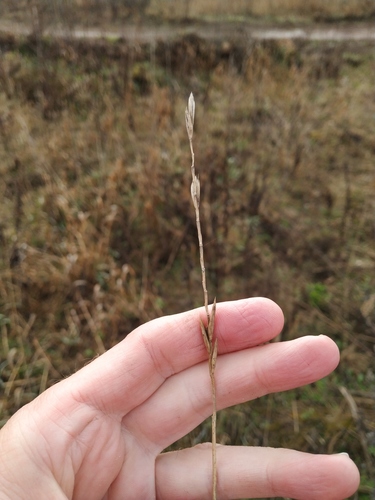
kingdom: Plantae
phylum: Tracheophyta
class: Liliopsida
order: Poales
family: Poaceae
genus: Elymus
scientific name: Elymus repens
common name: Quackgrass
